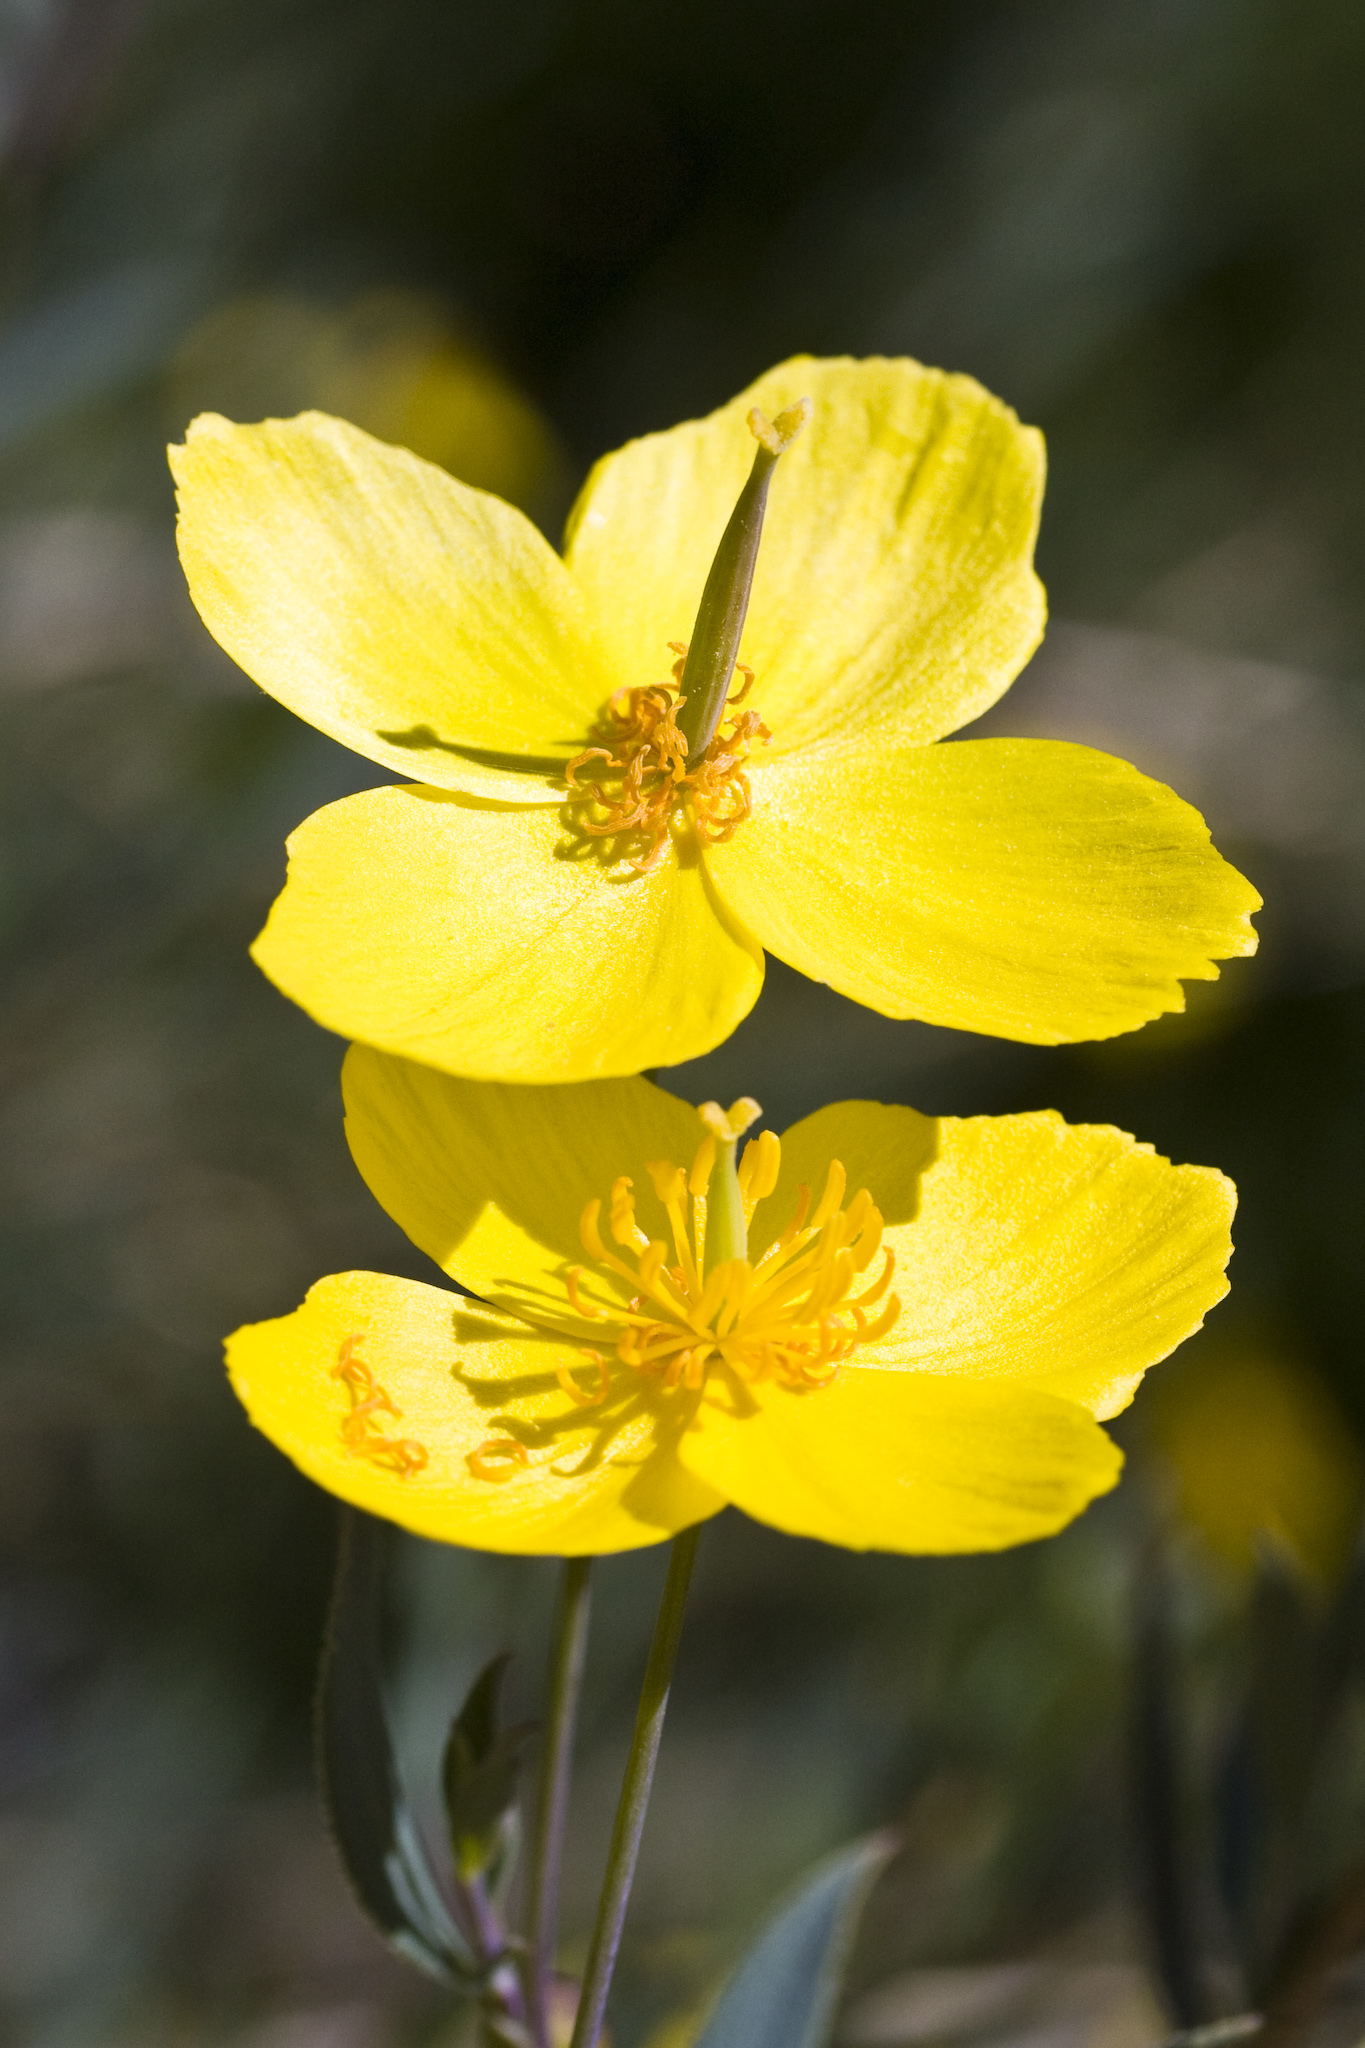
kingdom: Plantae
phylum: Tracheophyta
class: Magnoliopsida
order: Ranunculales
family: Papaveraceae
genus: Dendromecon
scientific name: Dendromecon rigida
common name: Tree poppy
